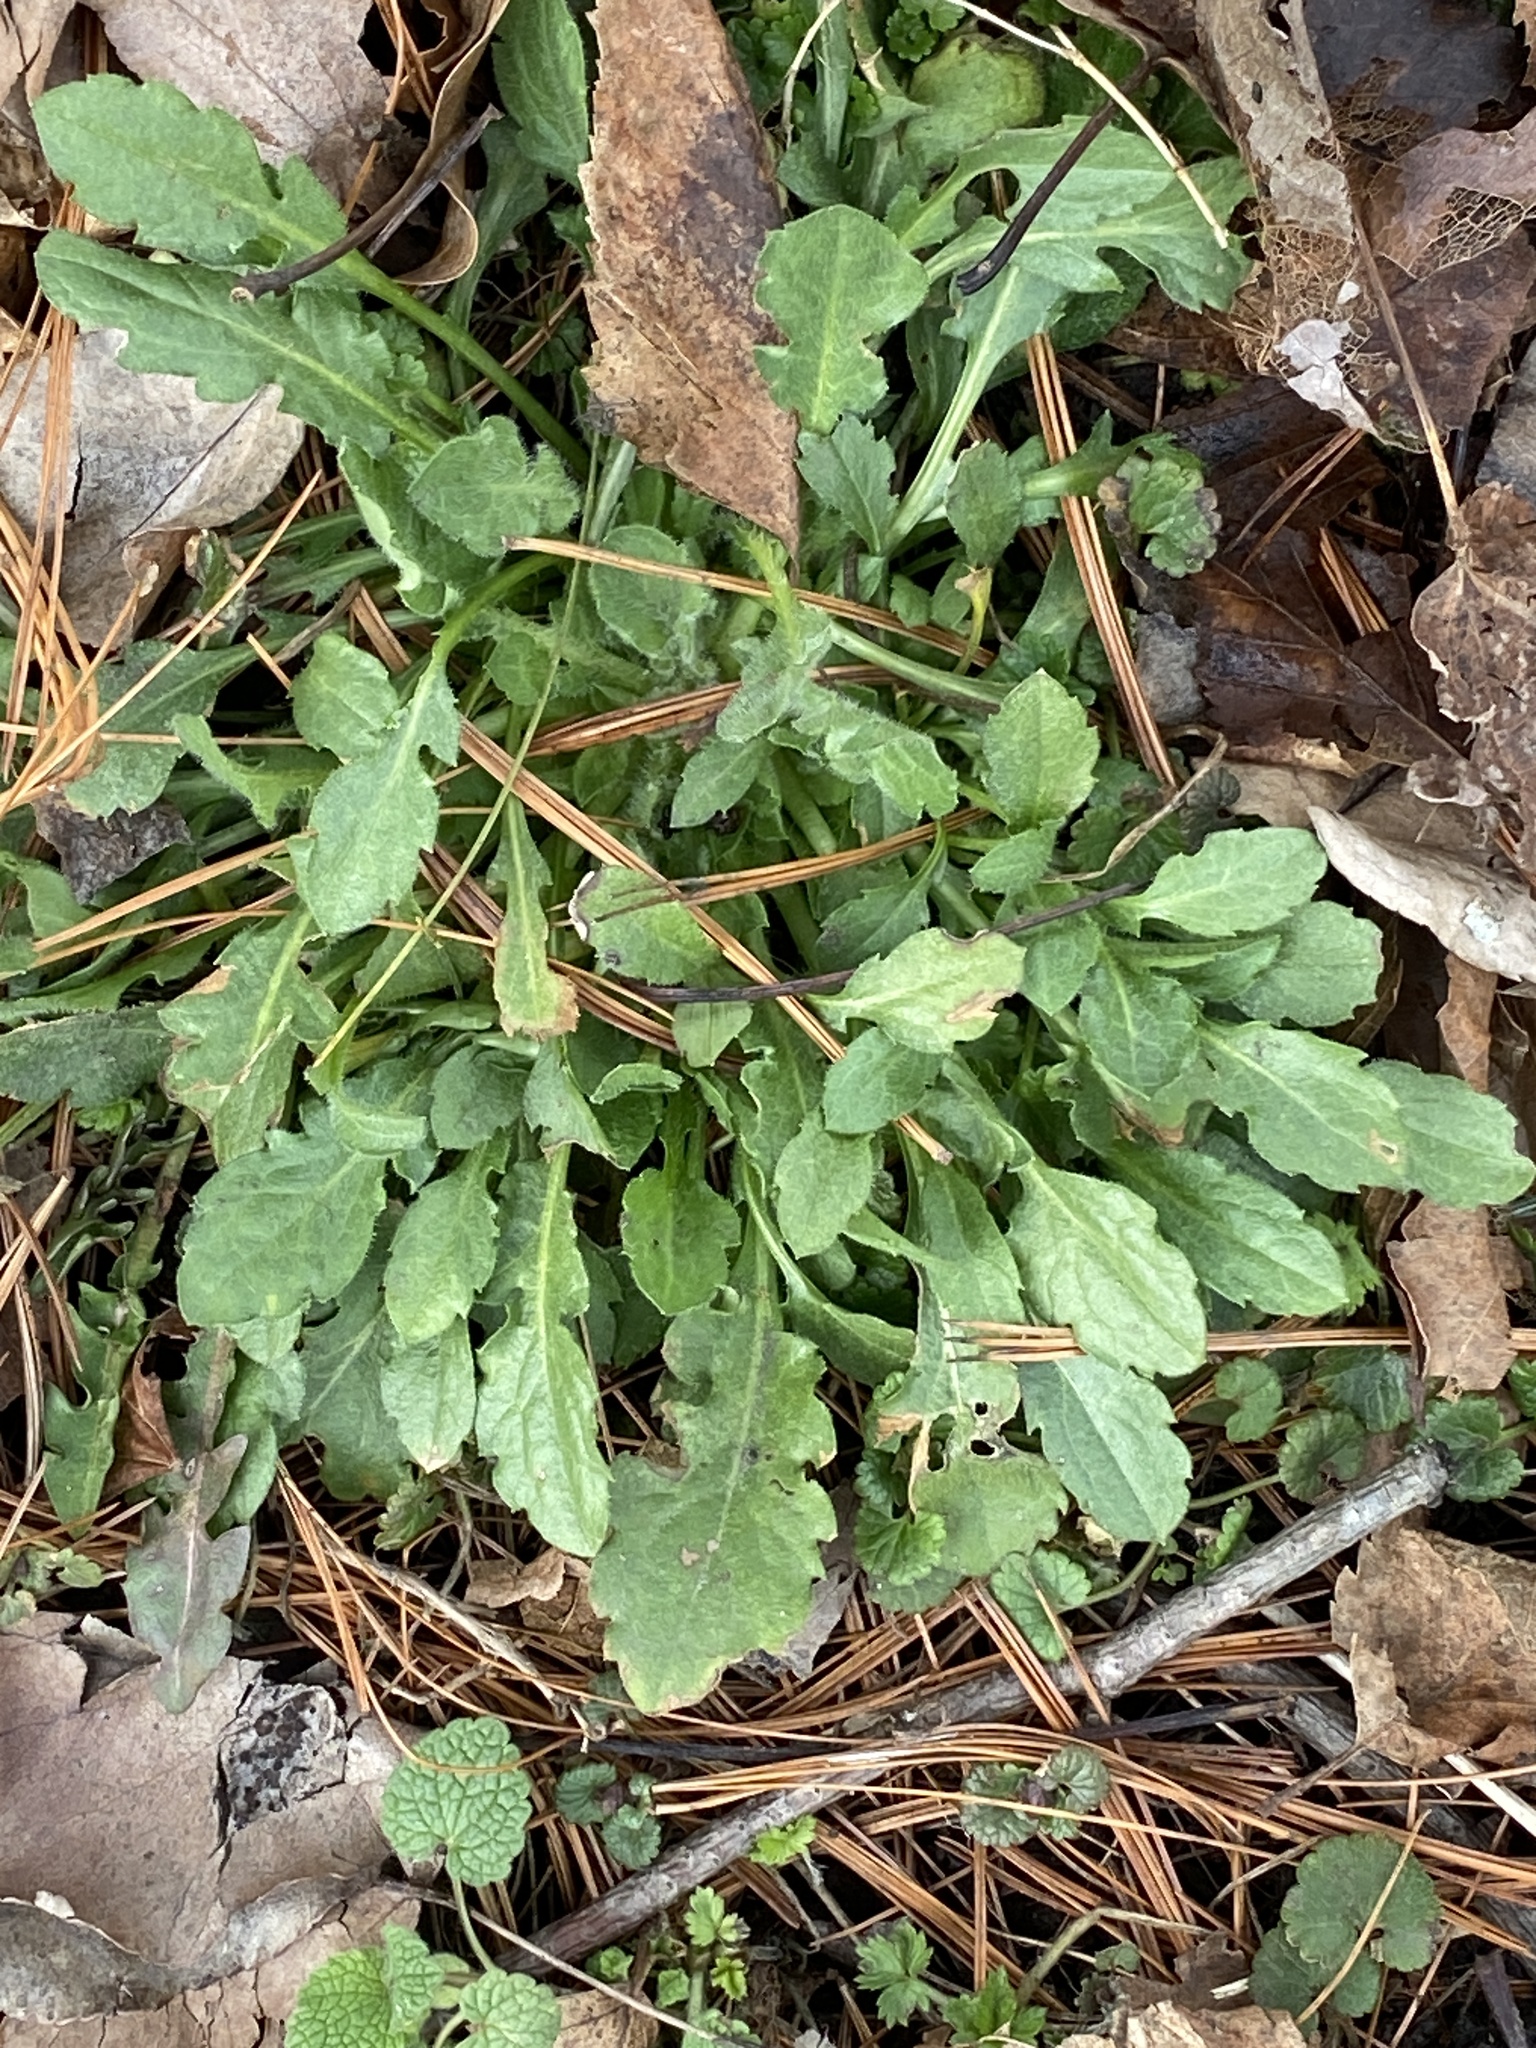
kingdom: Plantae
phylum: Tracheophyta
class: Magnoliopsida
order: Asterales
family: Asteraceae
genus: Erigeron
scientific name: Erigeron canadensis
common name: Canadian fleabane
